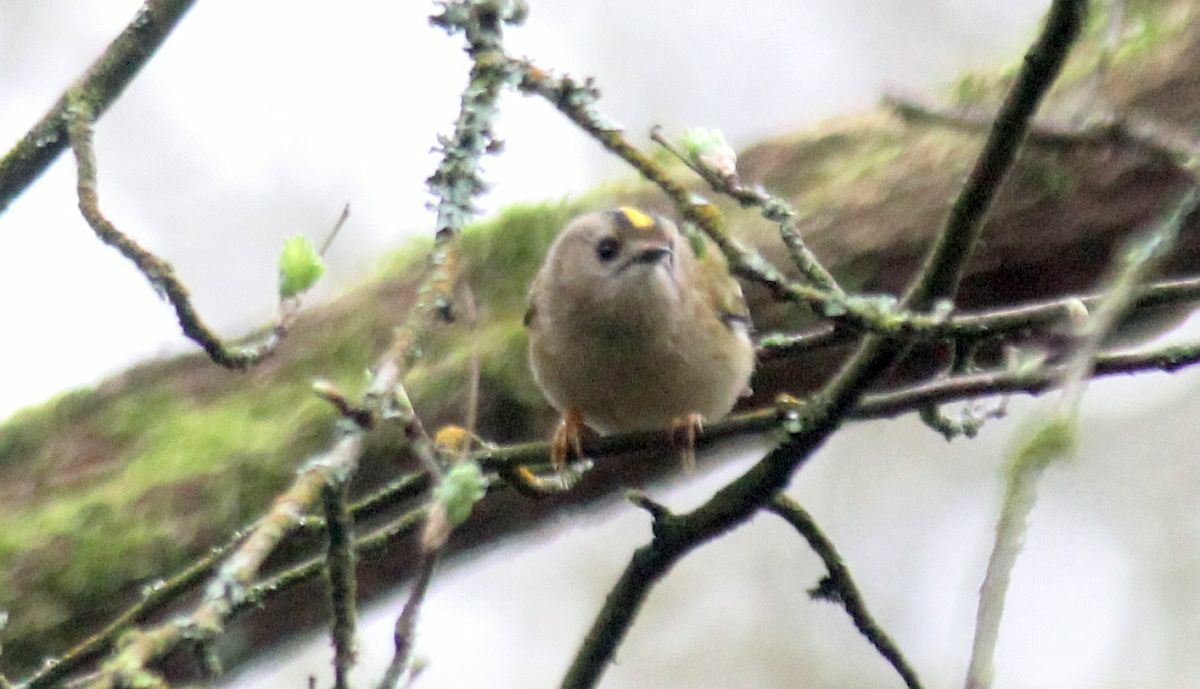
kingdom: Animalia
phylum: Chordata
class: Aves
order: Passeriformes
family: Regulidae
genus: Regulus
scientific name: Regulus regulus
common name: Goldcrest
